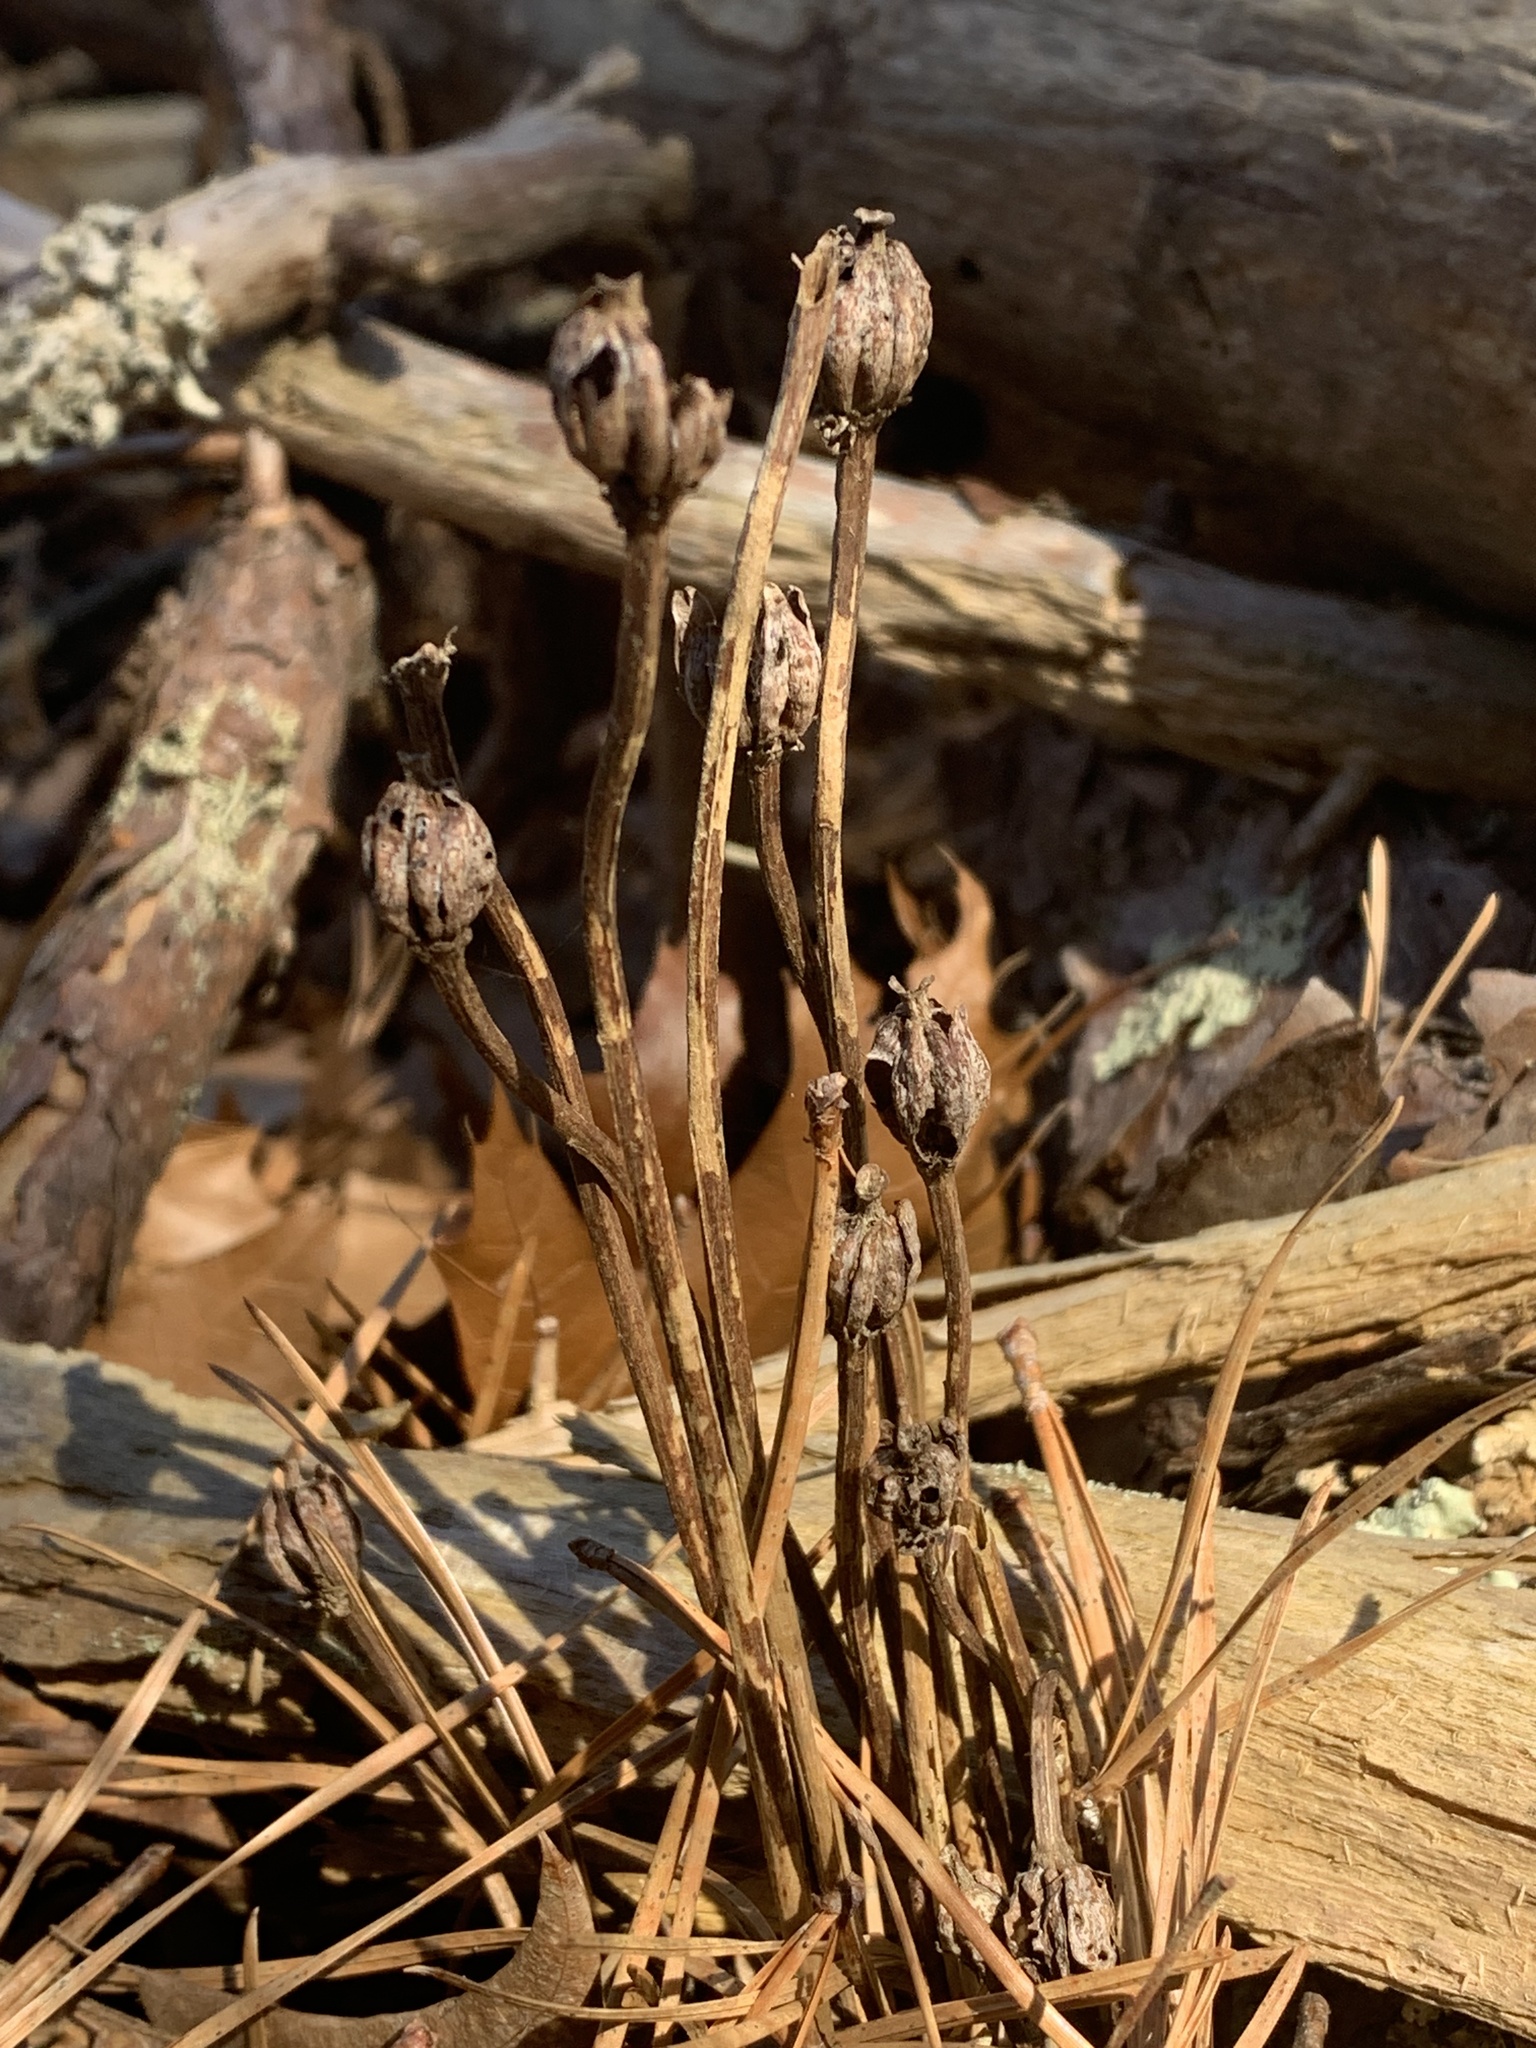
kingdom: Plantae
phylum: Tracheophyta
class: Magnoliopsida
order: Ericales
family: Ericaceae
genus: Monotropa
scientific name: Monotropa uniflora
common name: Convulsion root
